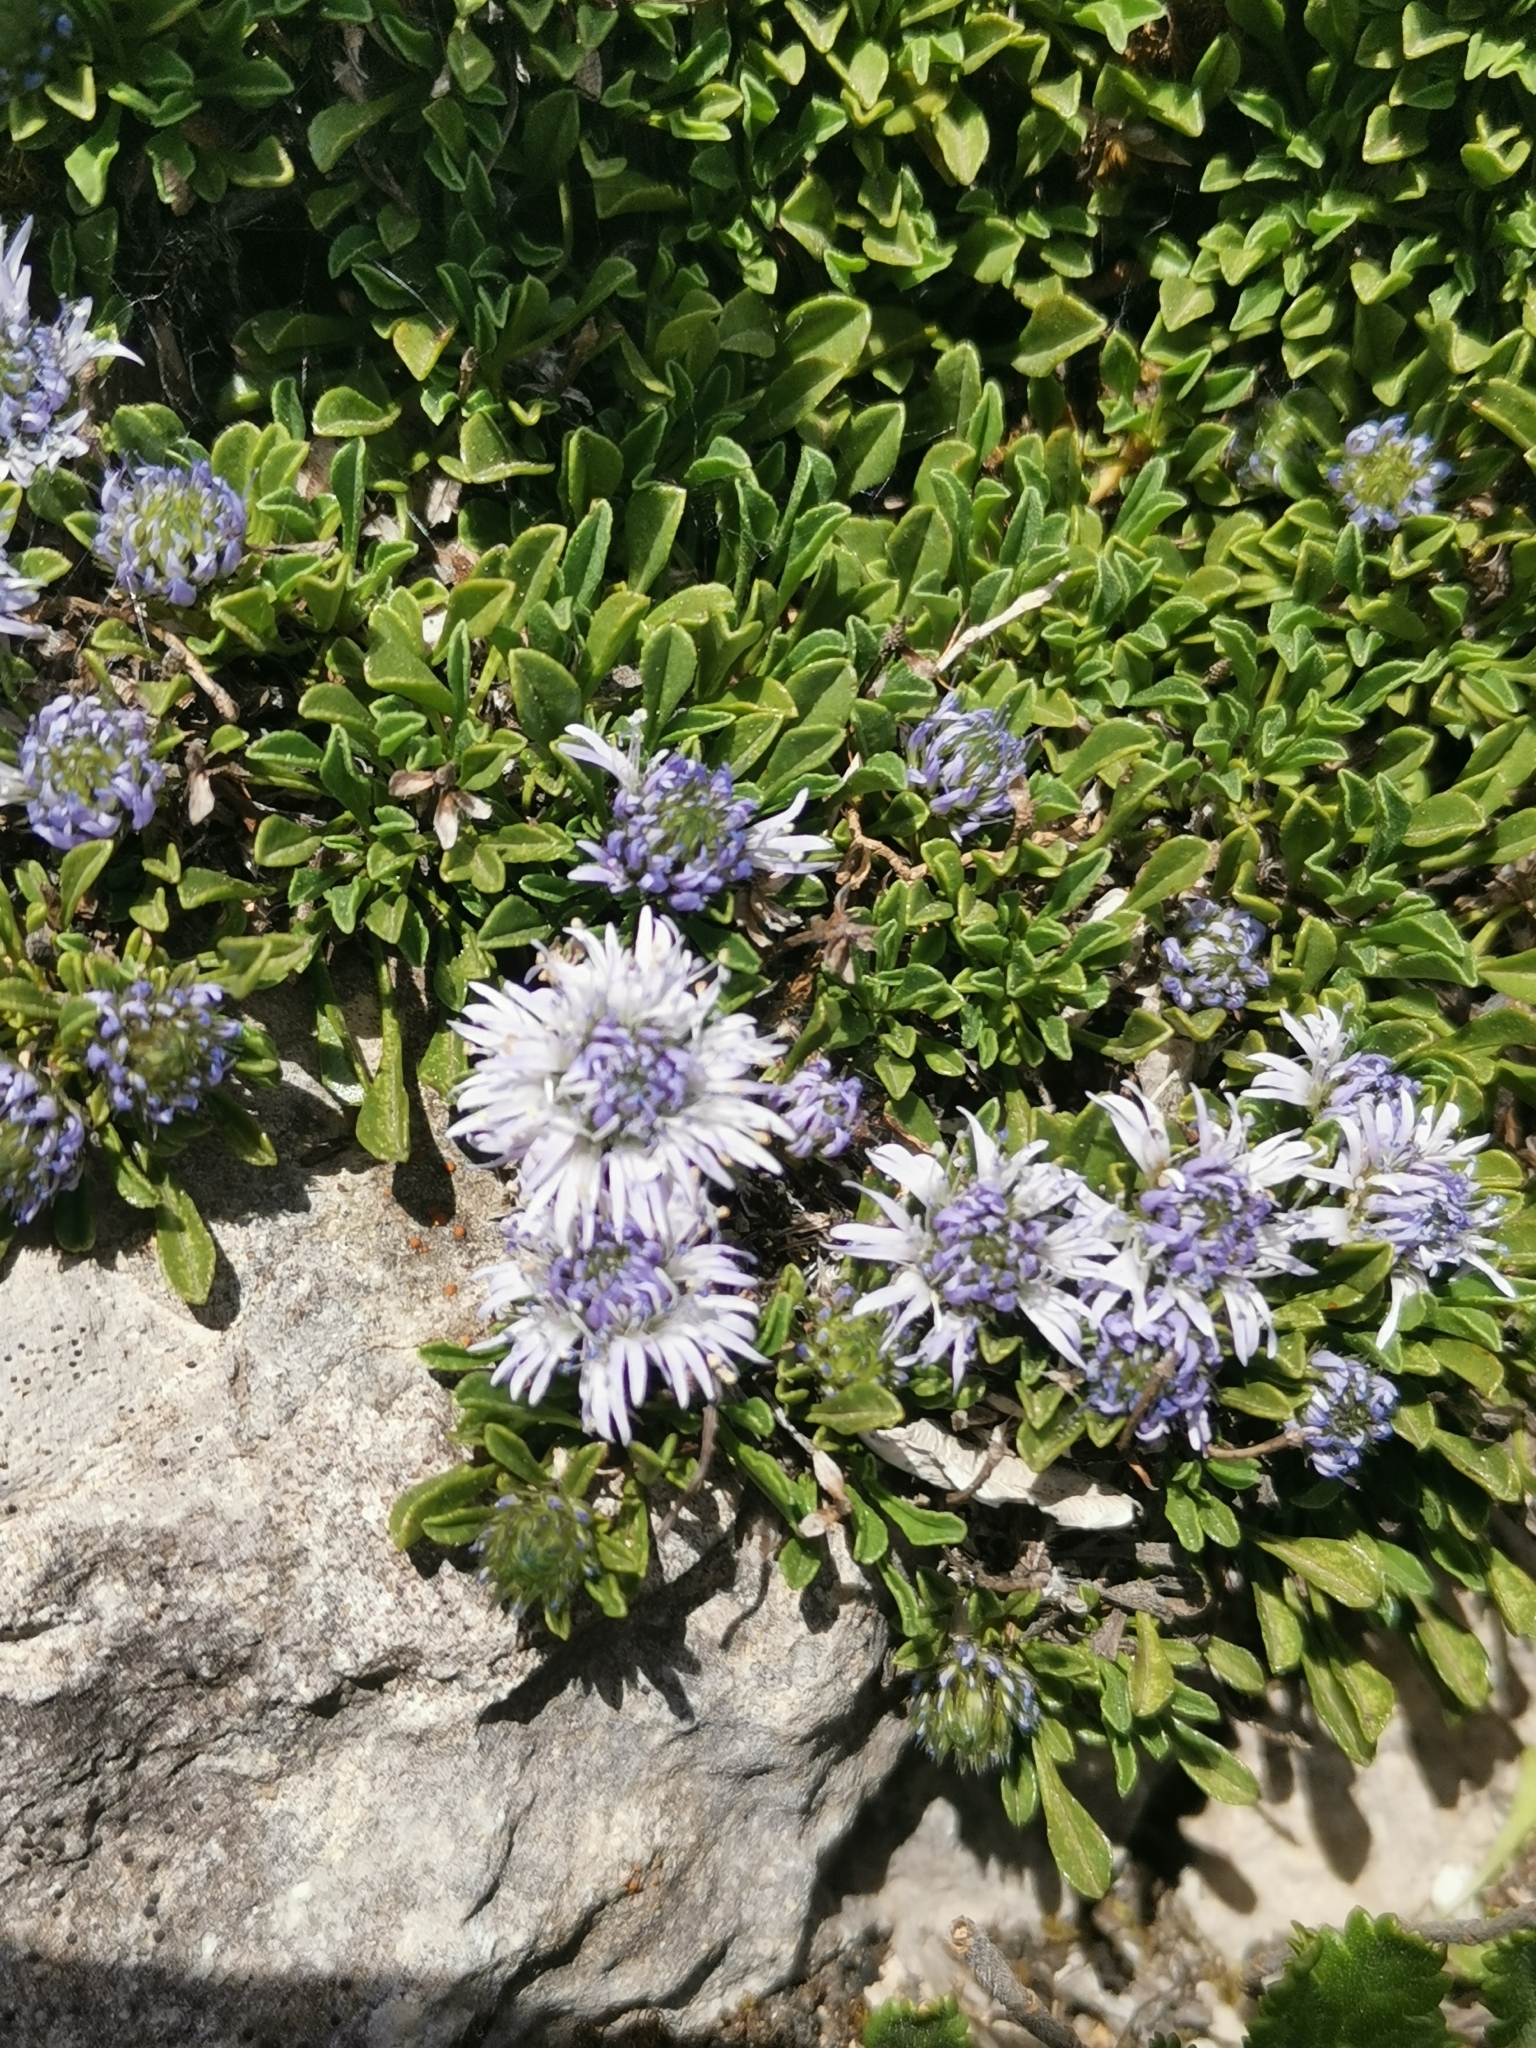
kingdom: Plantae
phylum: Tracheophyta
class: Magnoliopsida
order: Lamiales
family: Plantaginaceae
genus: Globularia
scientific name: Globularia repens
